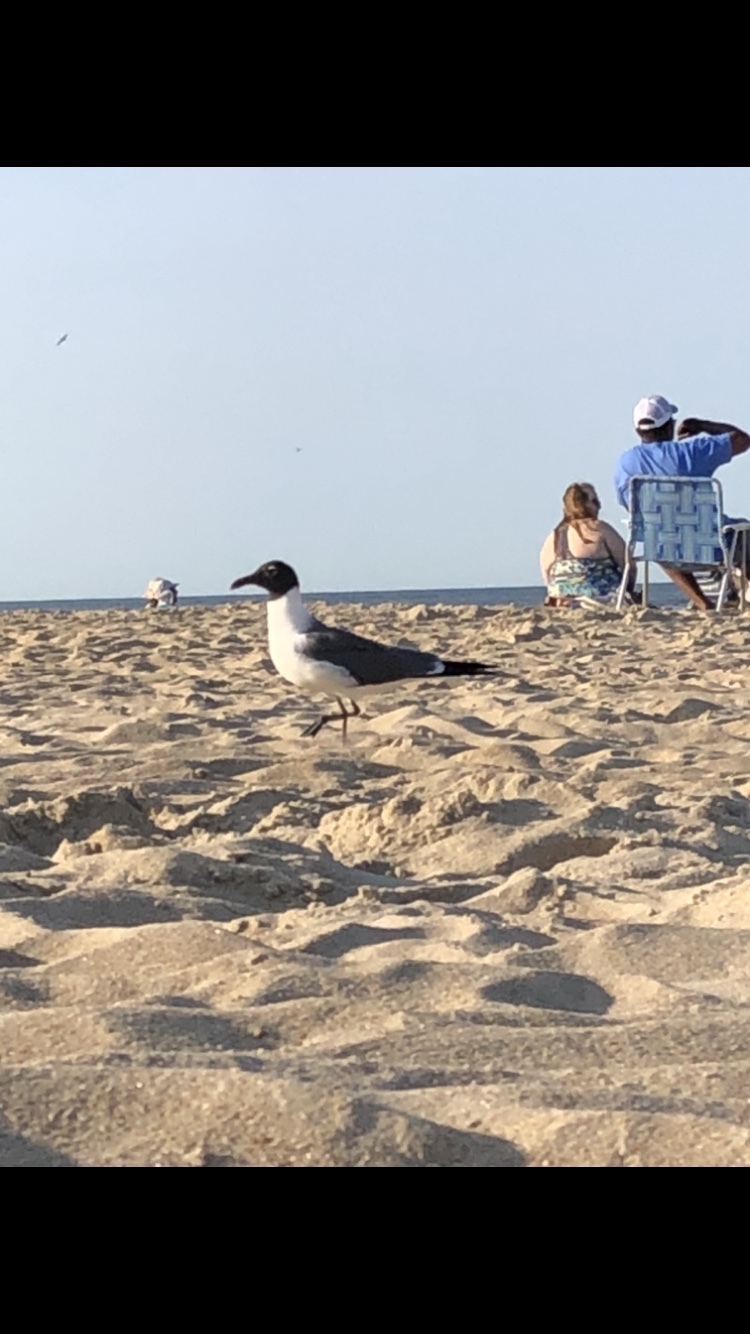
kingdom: Animalia
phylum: Chordata
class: Aves
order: Charadriiformes
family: Laridae
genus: Leucophaeus
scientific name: Leucophaeus atricilla
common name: Laughing gull
